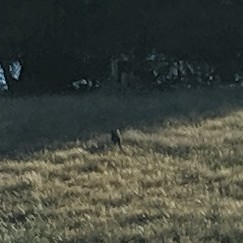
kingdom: Animalia
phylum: Chordata
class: Mammalia
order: Carnivora
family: Felidae
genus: Lynx
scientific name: Lynx rufus
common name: Bobcat
